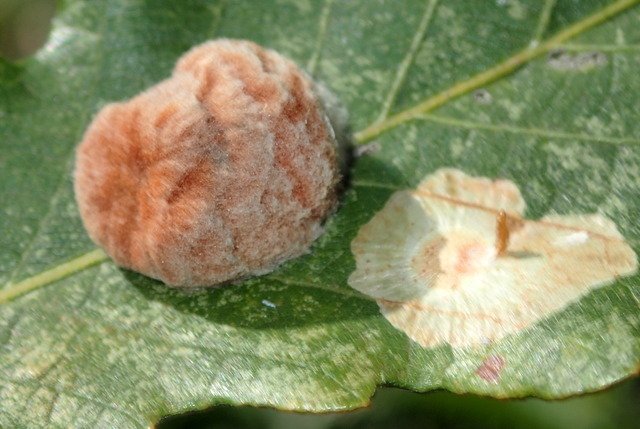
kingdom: Animalia
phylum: Arthropoda
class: Insecta
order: Hymenoptera
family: Cynipidae
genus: Andricus
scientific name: Andricus quercusflocci
